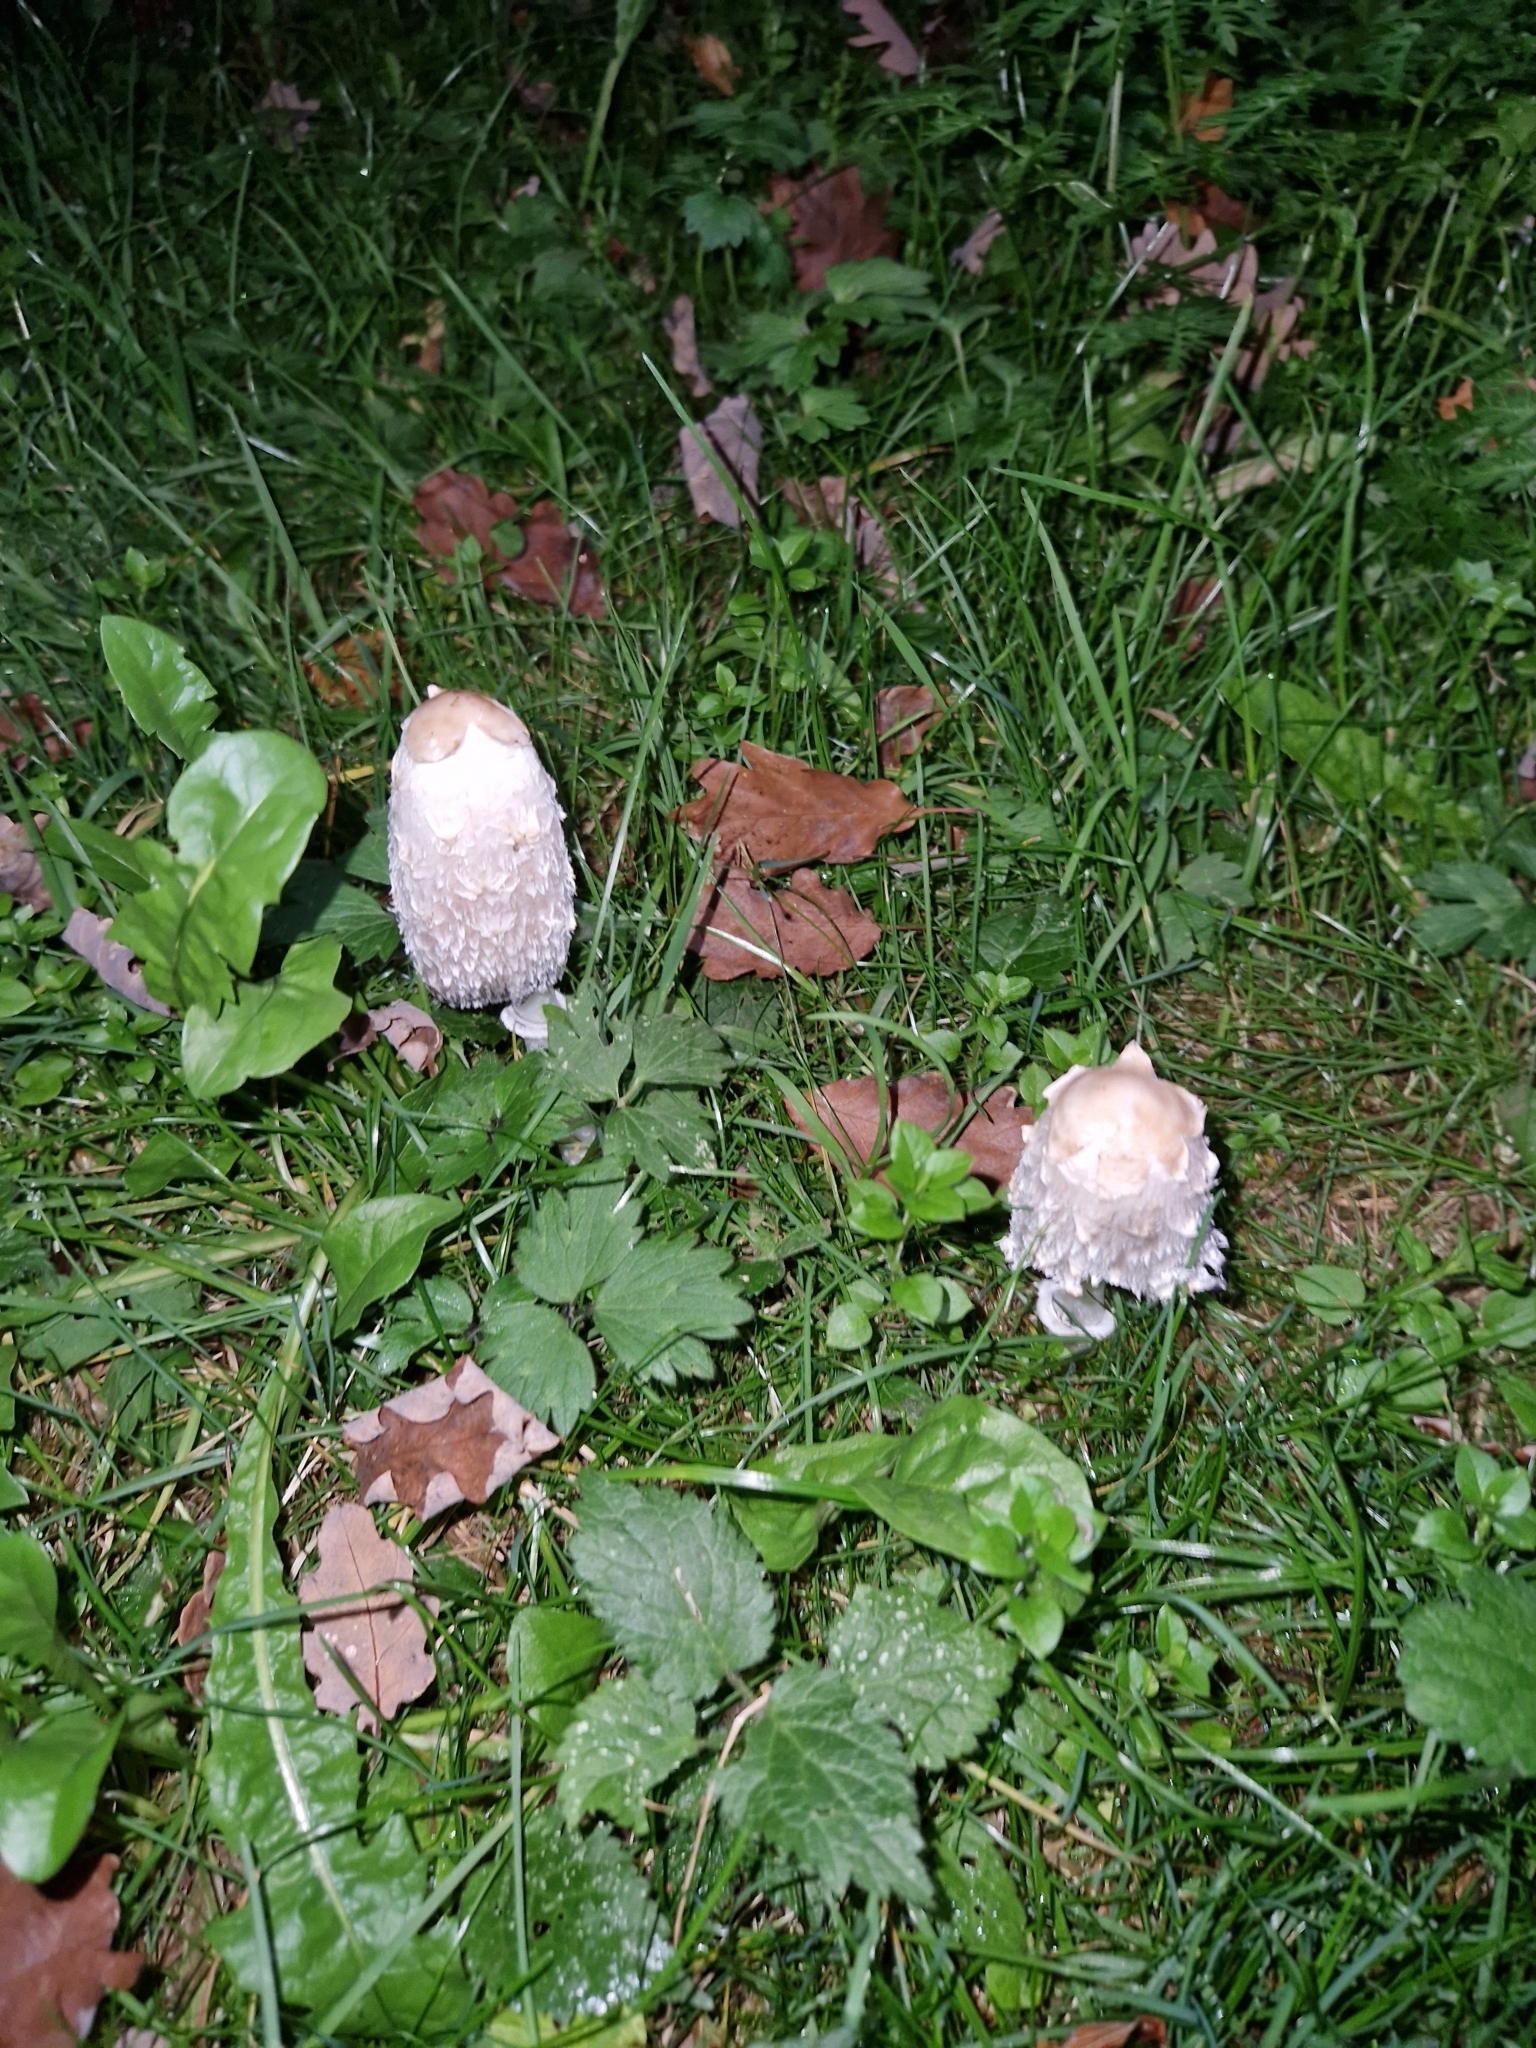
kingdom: Fungi
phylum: Basidiomycota
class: Agaricomycetes
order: Agaricales
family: Agaricaceae
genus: Coprinus
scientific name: Coprinus comatus
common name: Lawyer's wig
